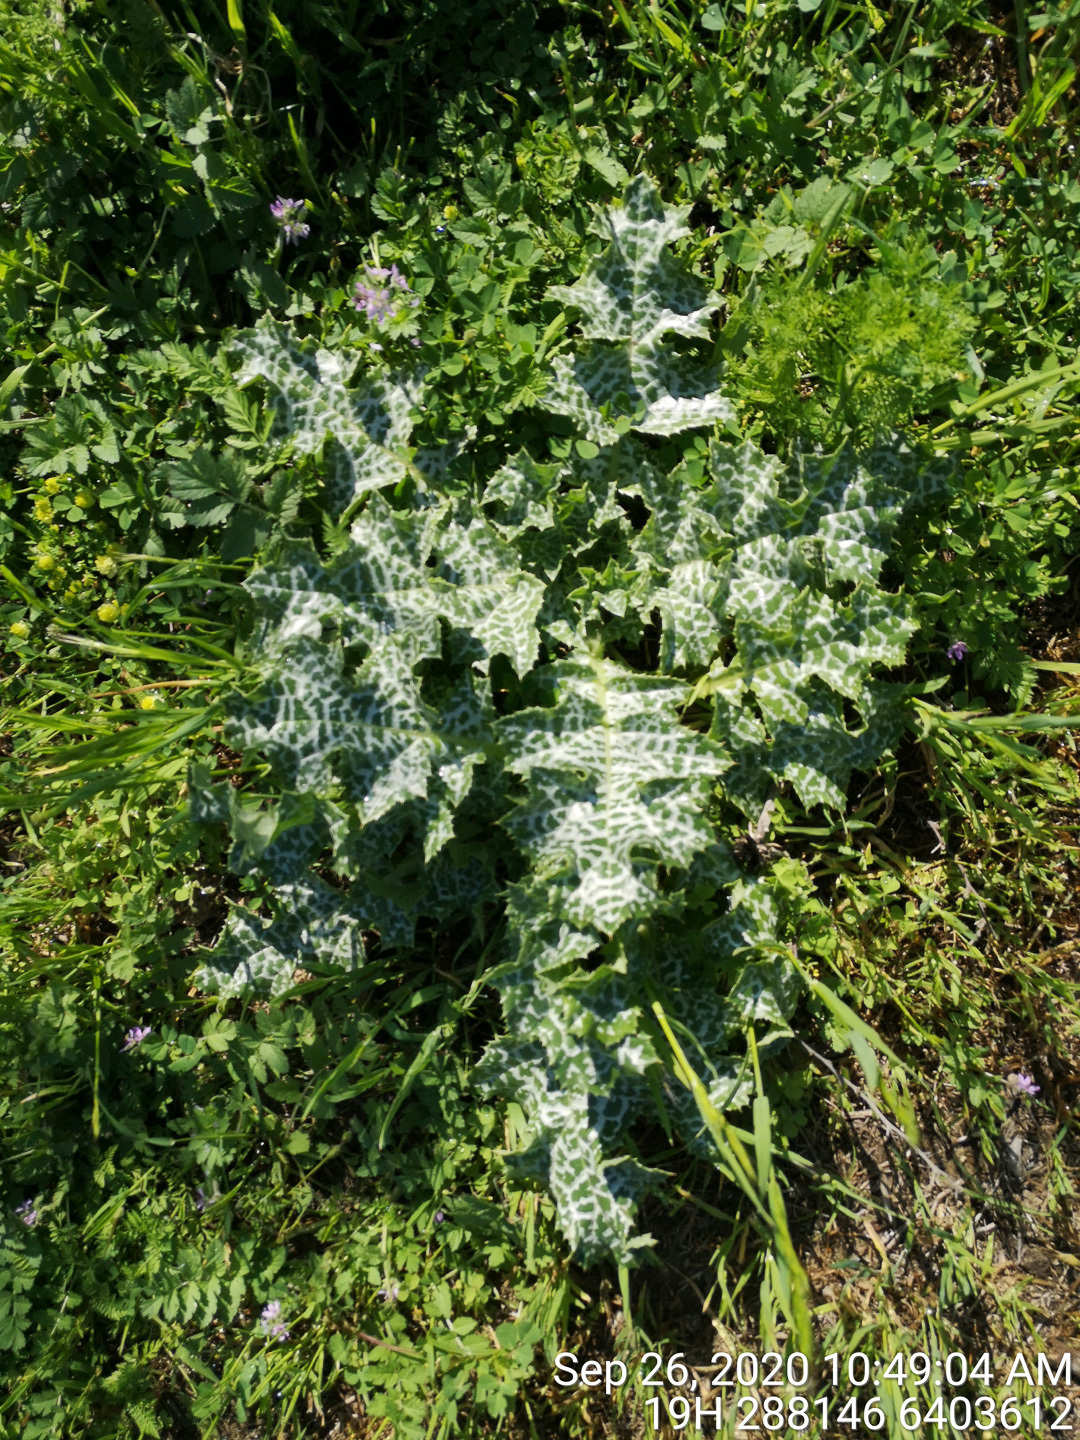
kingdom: Plantae
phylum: Tracheophyta
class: Magnoliopsida
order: Asterales
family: Asteraceae
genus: Silybum
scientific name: Silybum marianum
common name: Milk thistle
